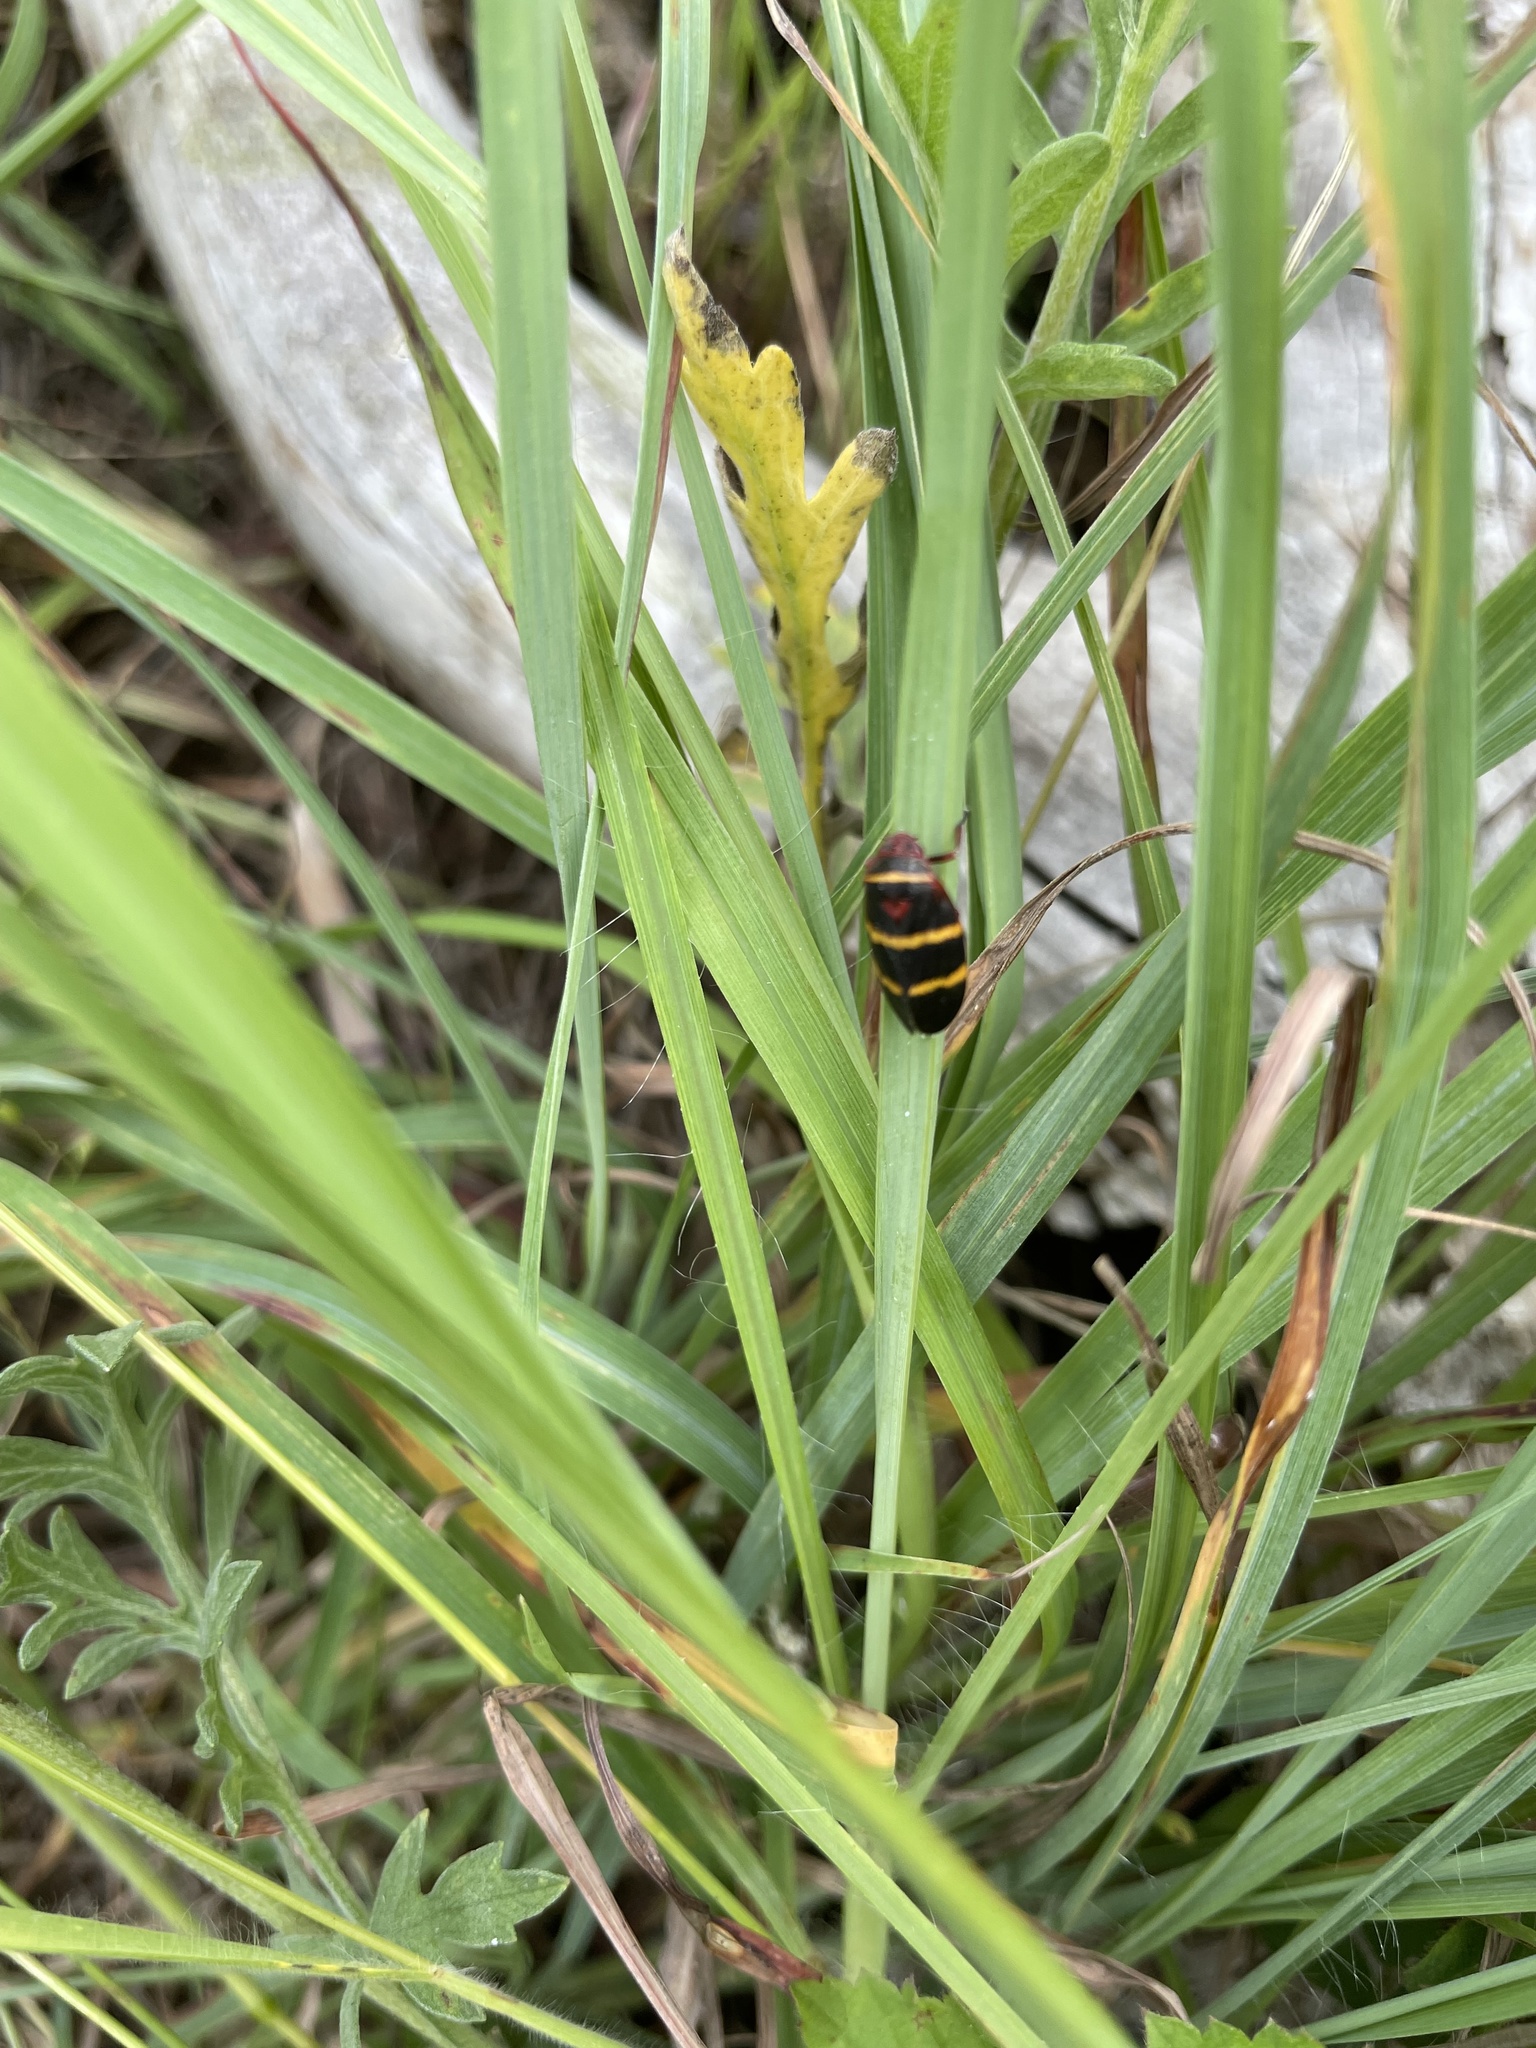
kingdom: Animalia
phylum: Arthropoda
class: Insecta
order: Hemiptera
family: Cercopidae
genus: Prosapia
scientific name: Prosapia bicincta
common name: Twolined spittlebug
